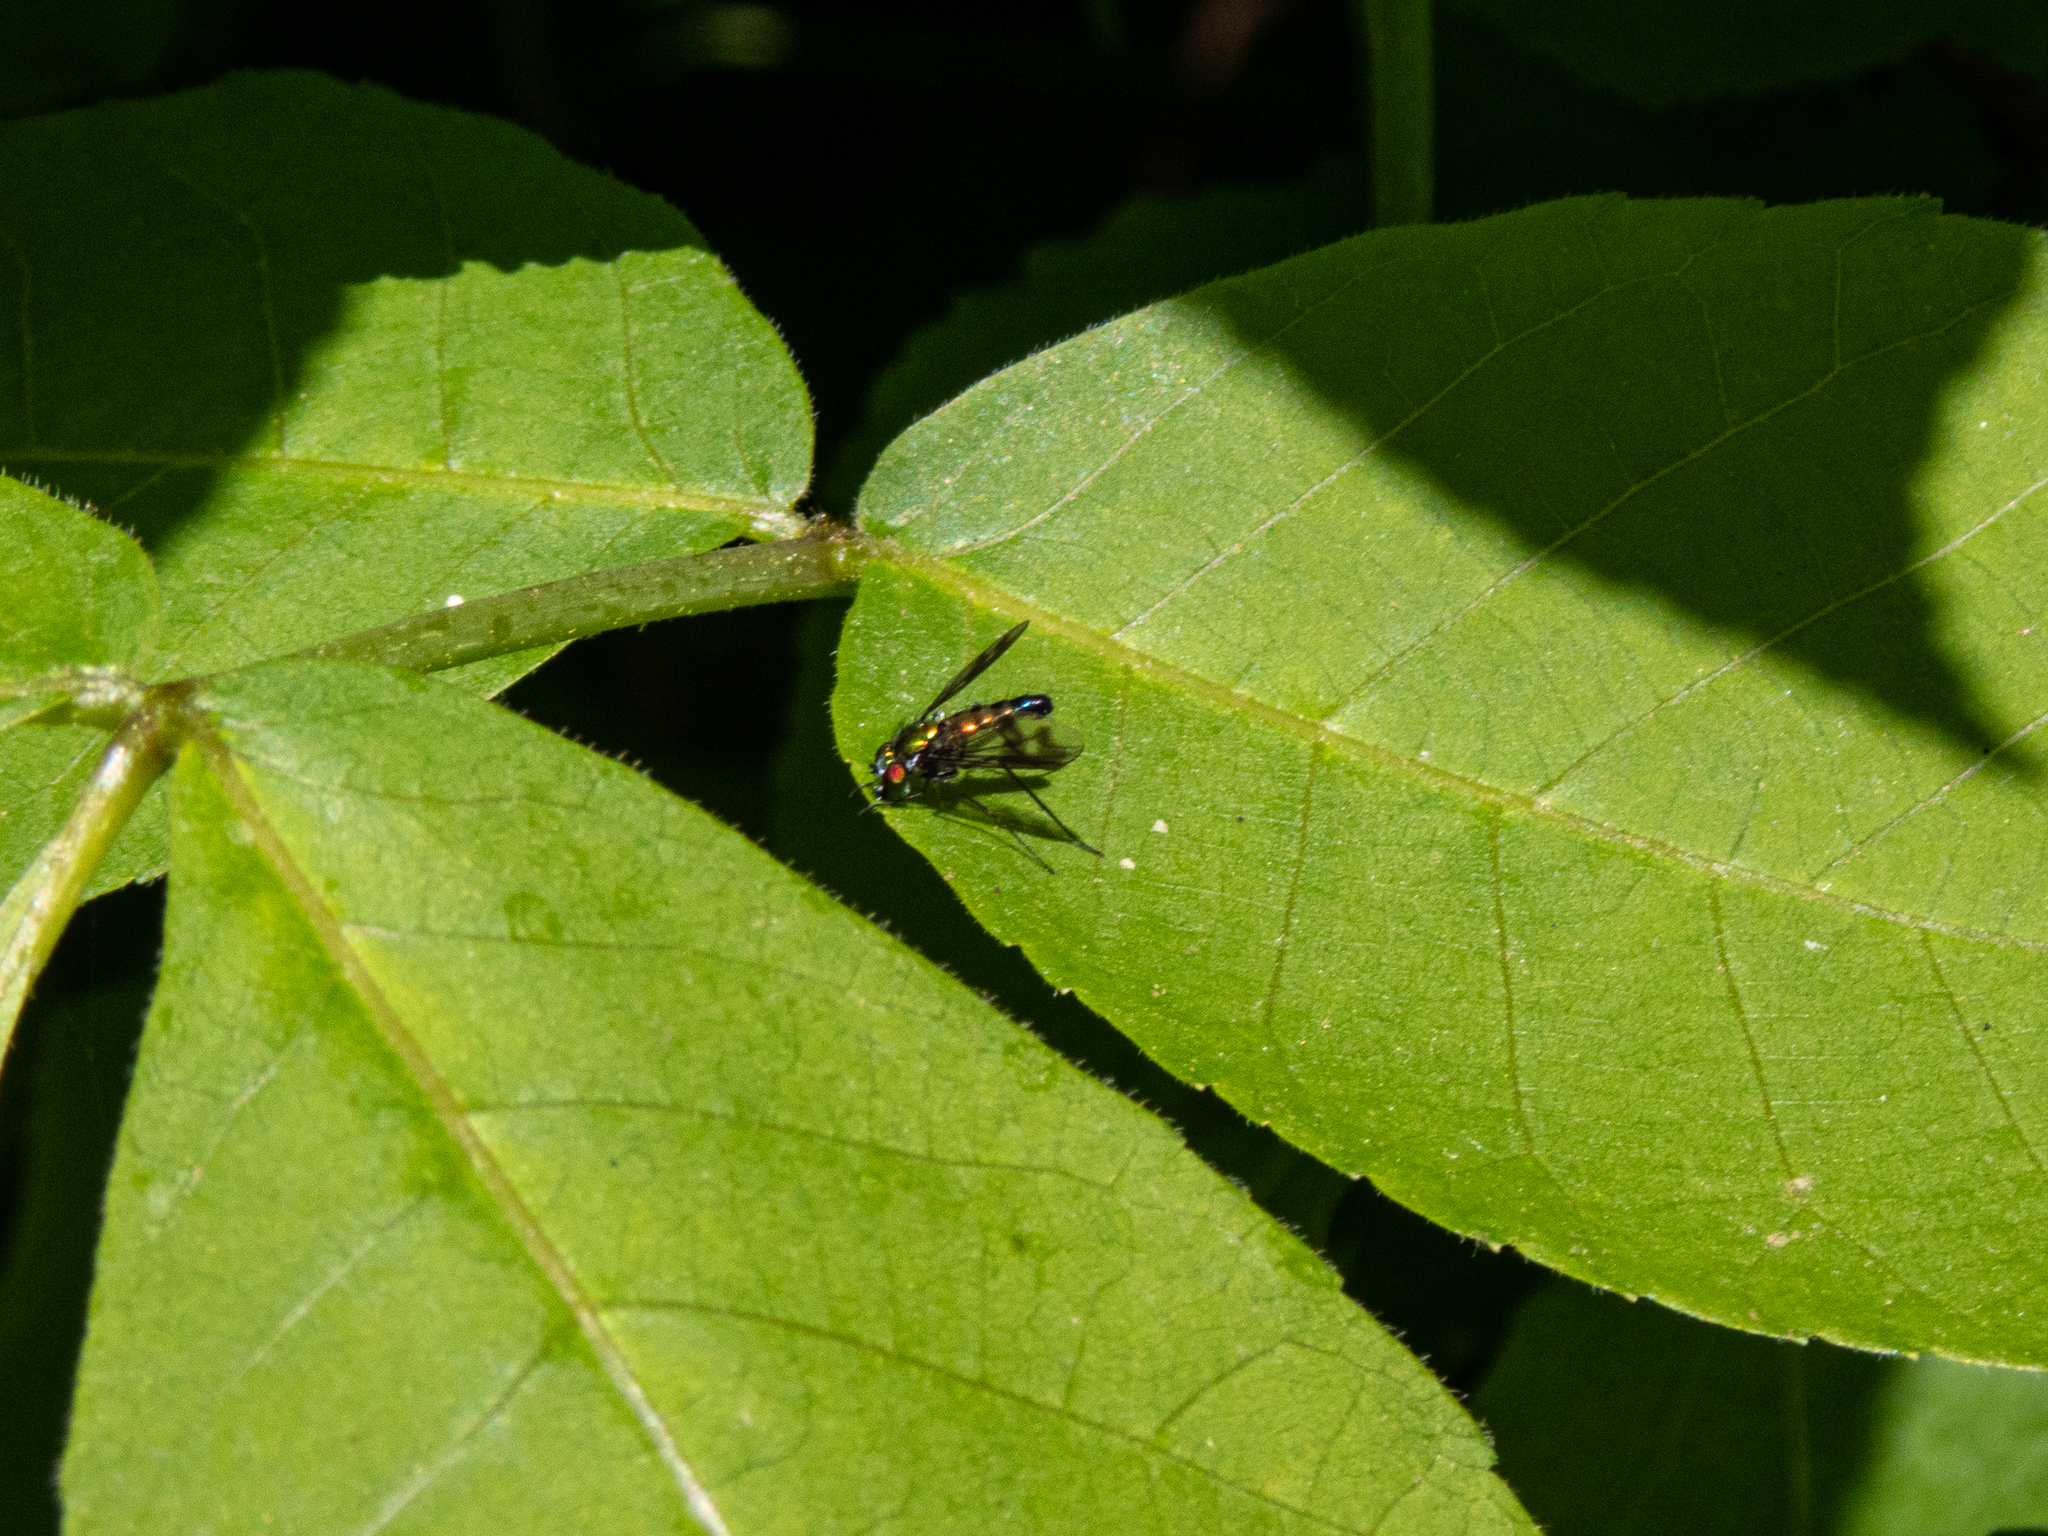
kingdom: Animalia
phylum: Arthropoda
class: Insecta
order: Diptera
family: Dolichopodidae
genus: Condylostylus
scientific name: Condylostylus patibulatus
